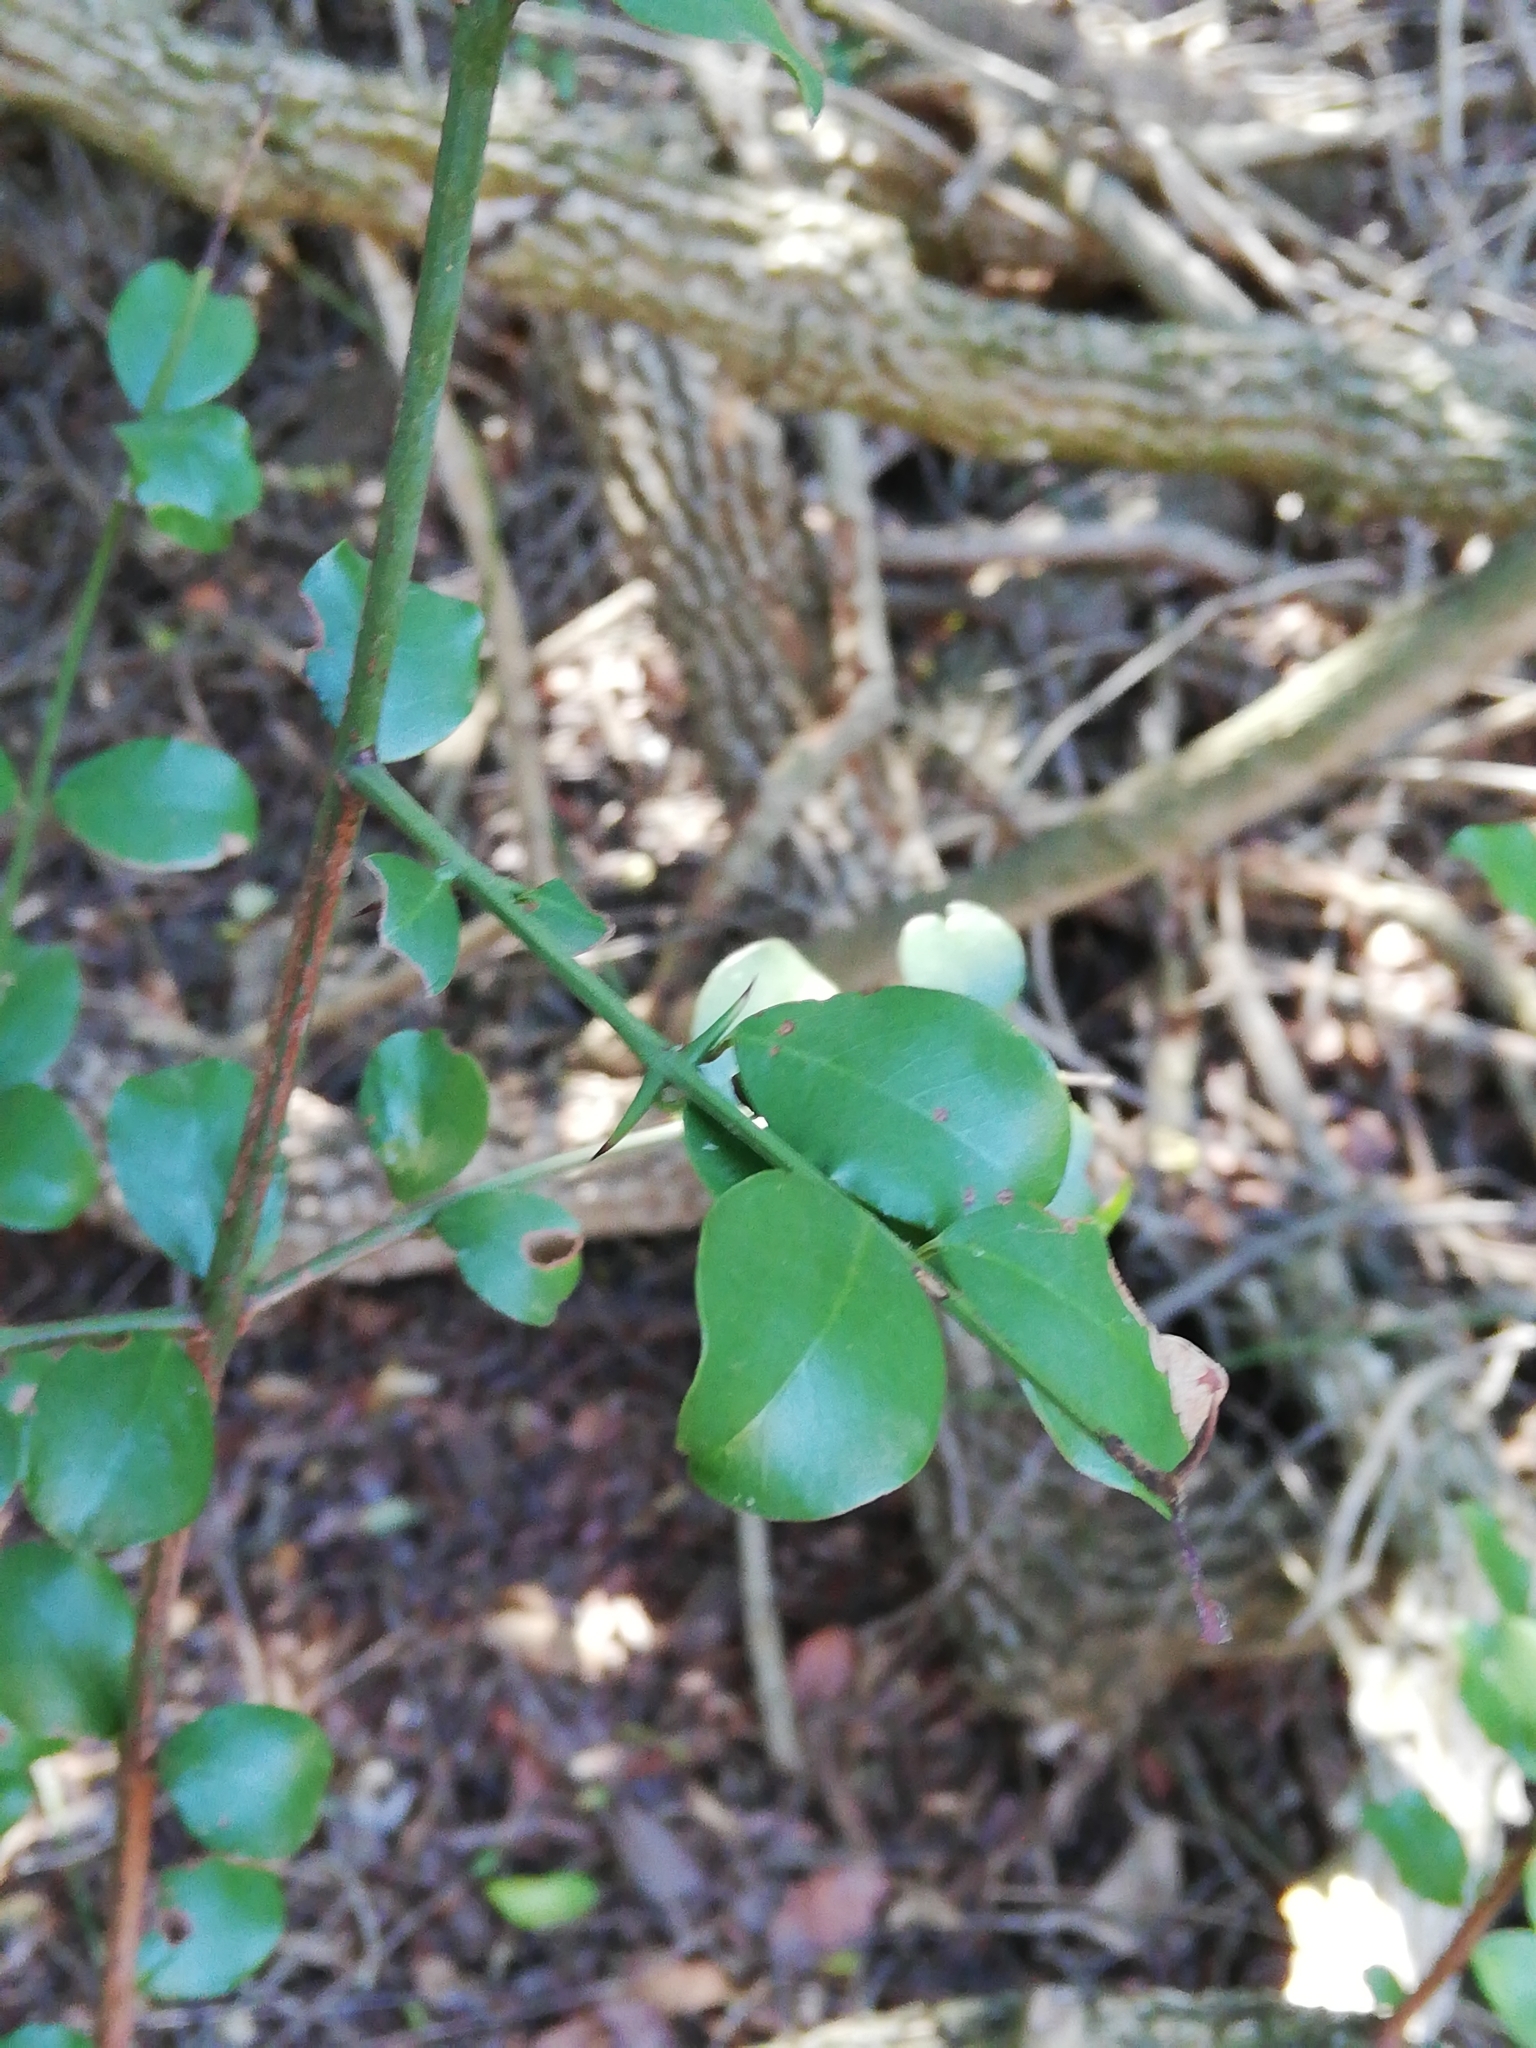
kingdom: Plantae
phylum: Tracheophyta
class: Magnoliopsida
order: Rosales
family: Rhamnaceae
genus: Scutia
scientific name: Scutia myrtina
